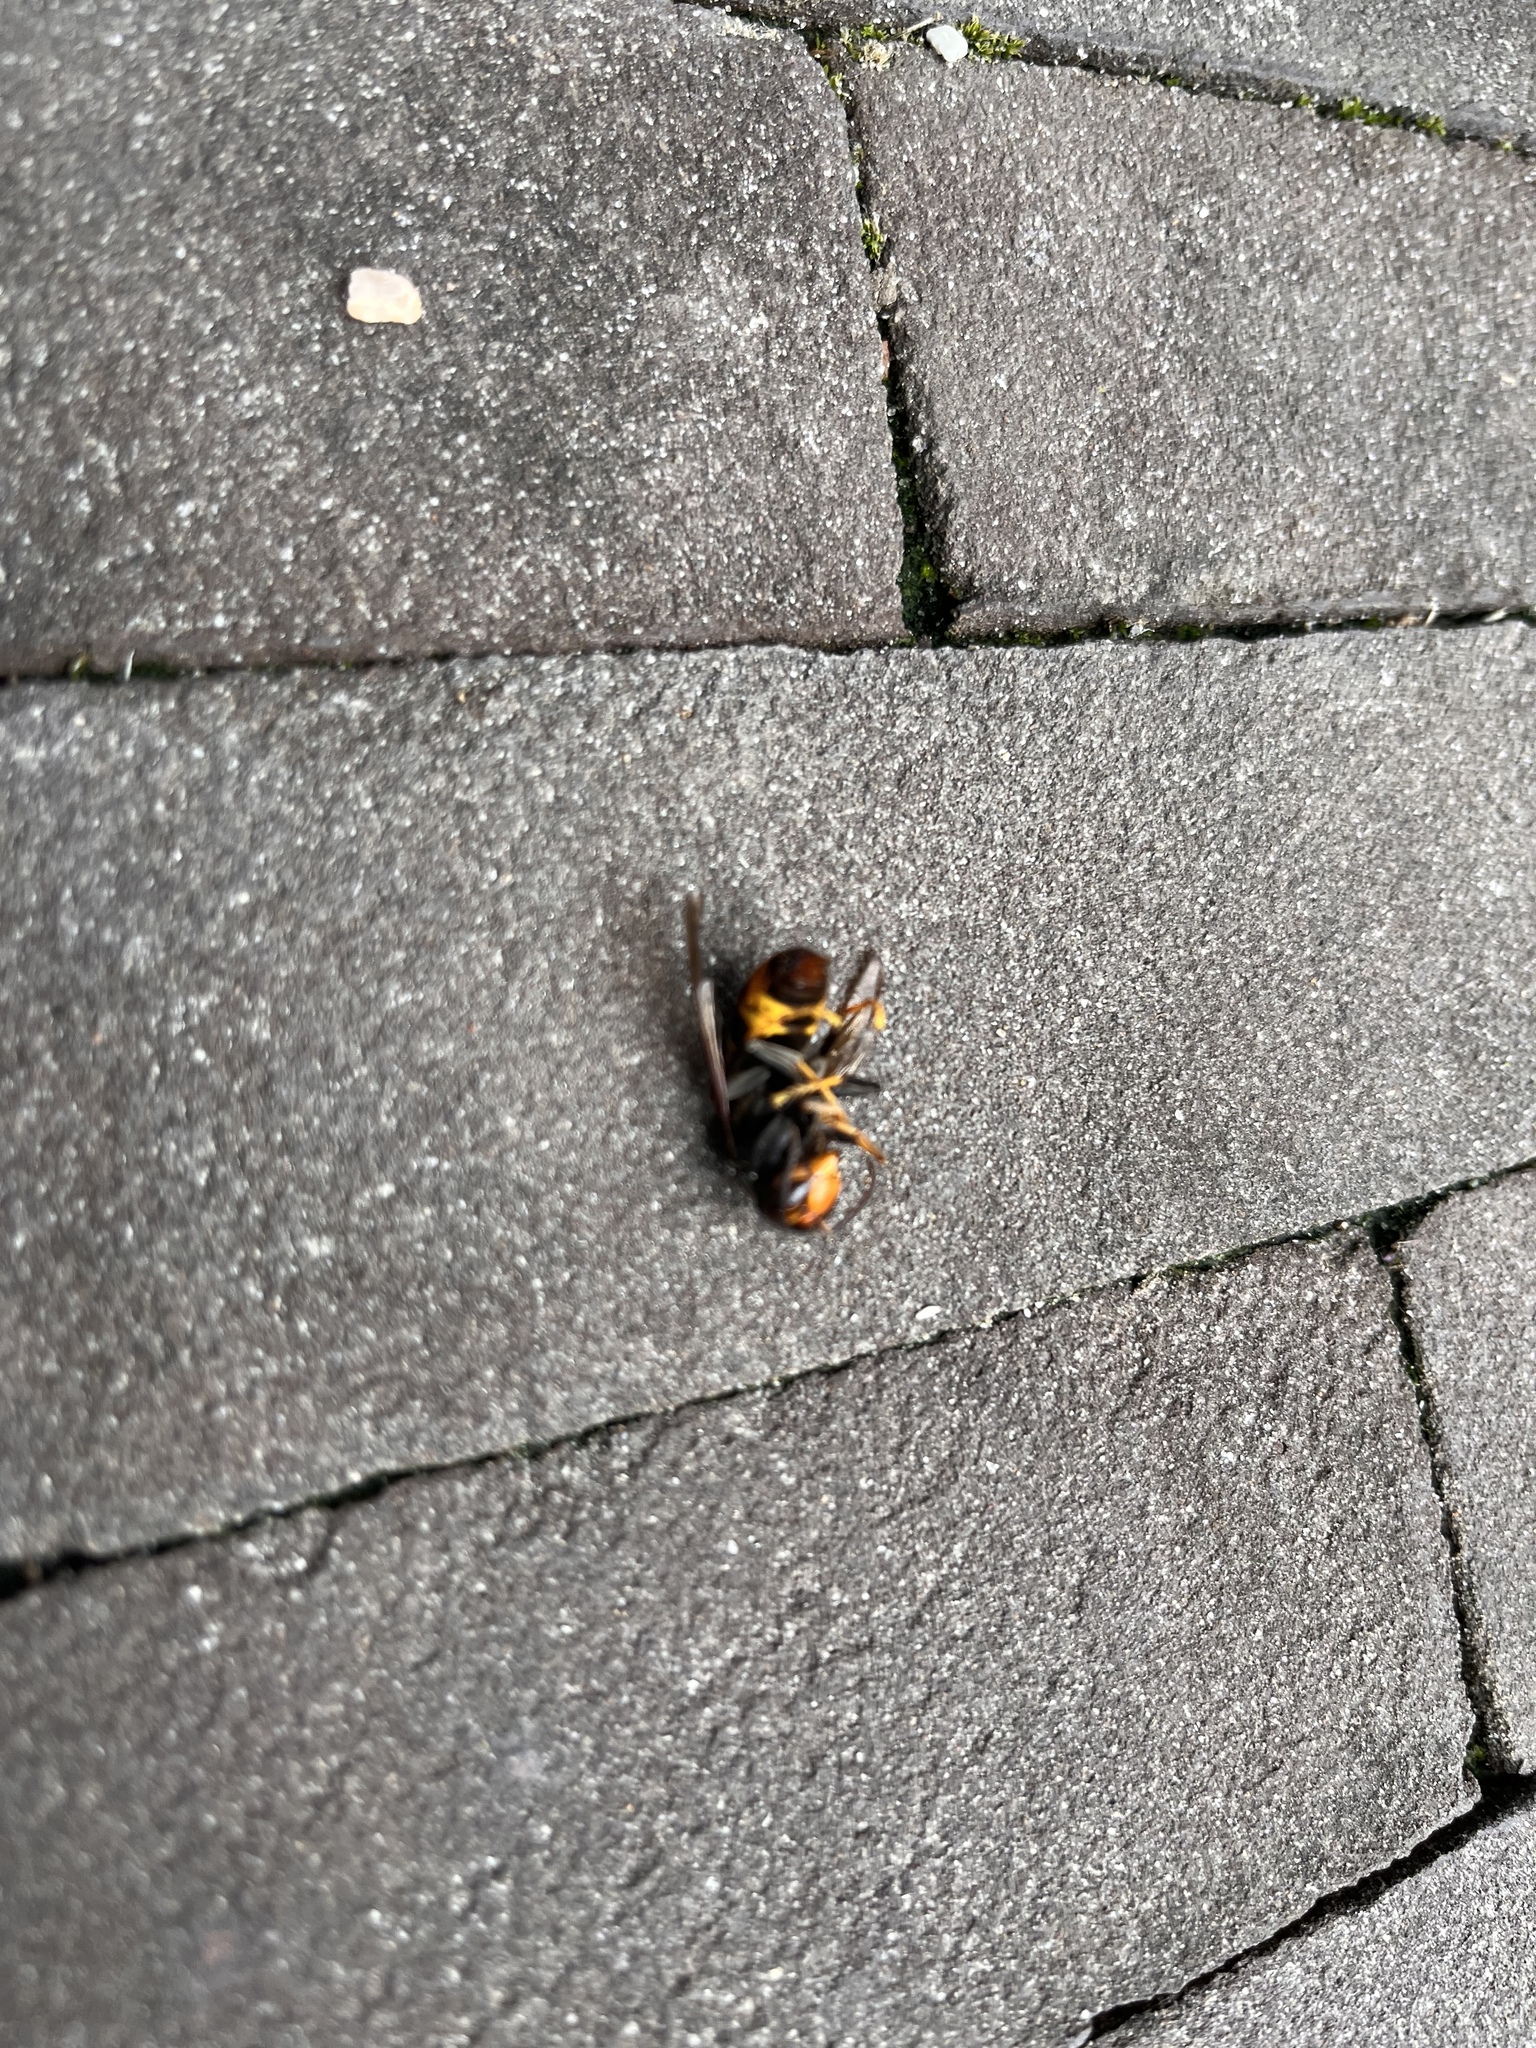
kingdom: Animalia
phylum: Arthropoda
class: Insecta
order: Hymenoptera
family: Vespidae
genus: Vespa
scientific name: Vespa velutina
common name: Asian hornet
